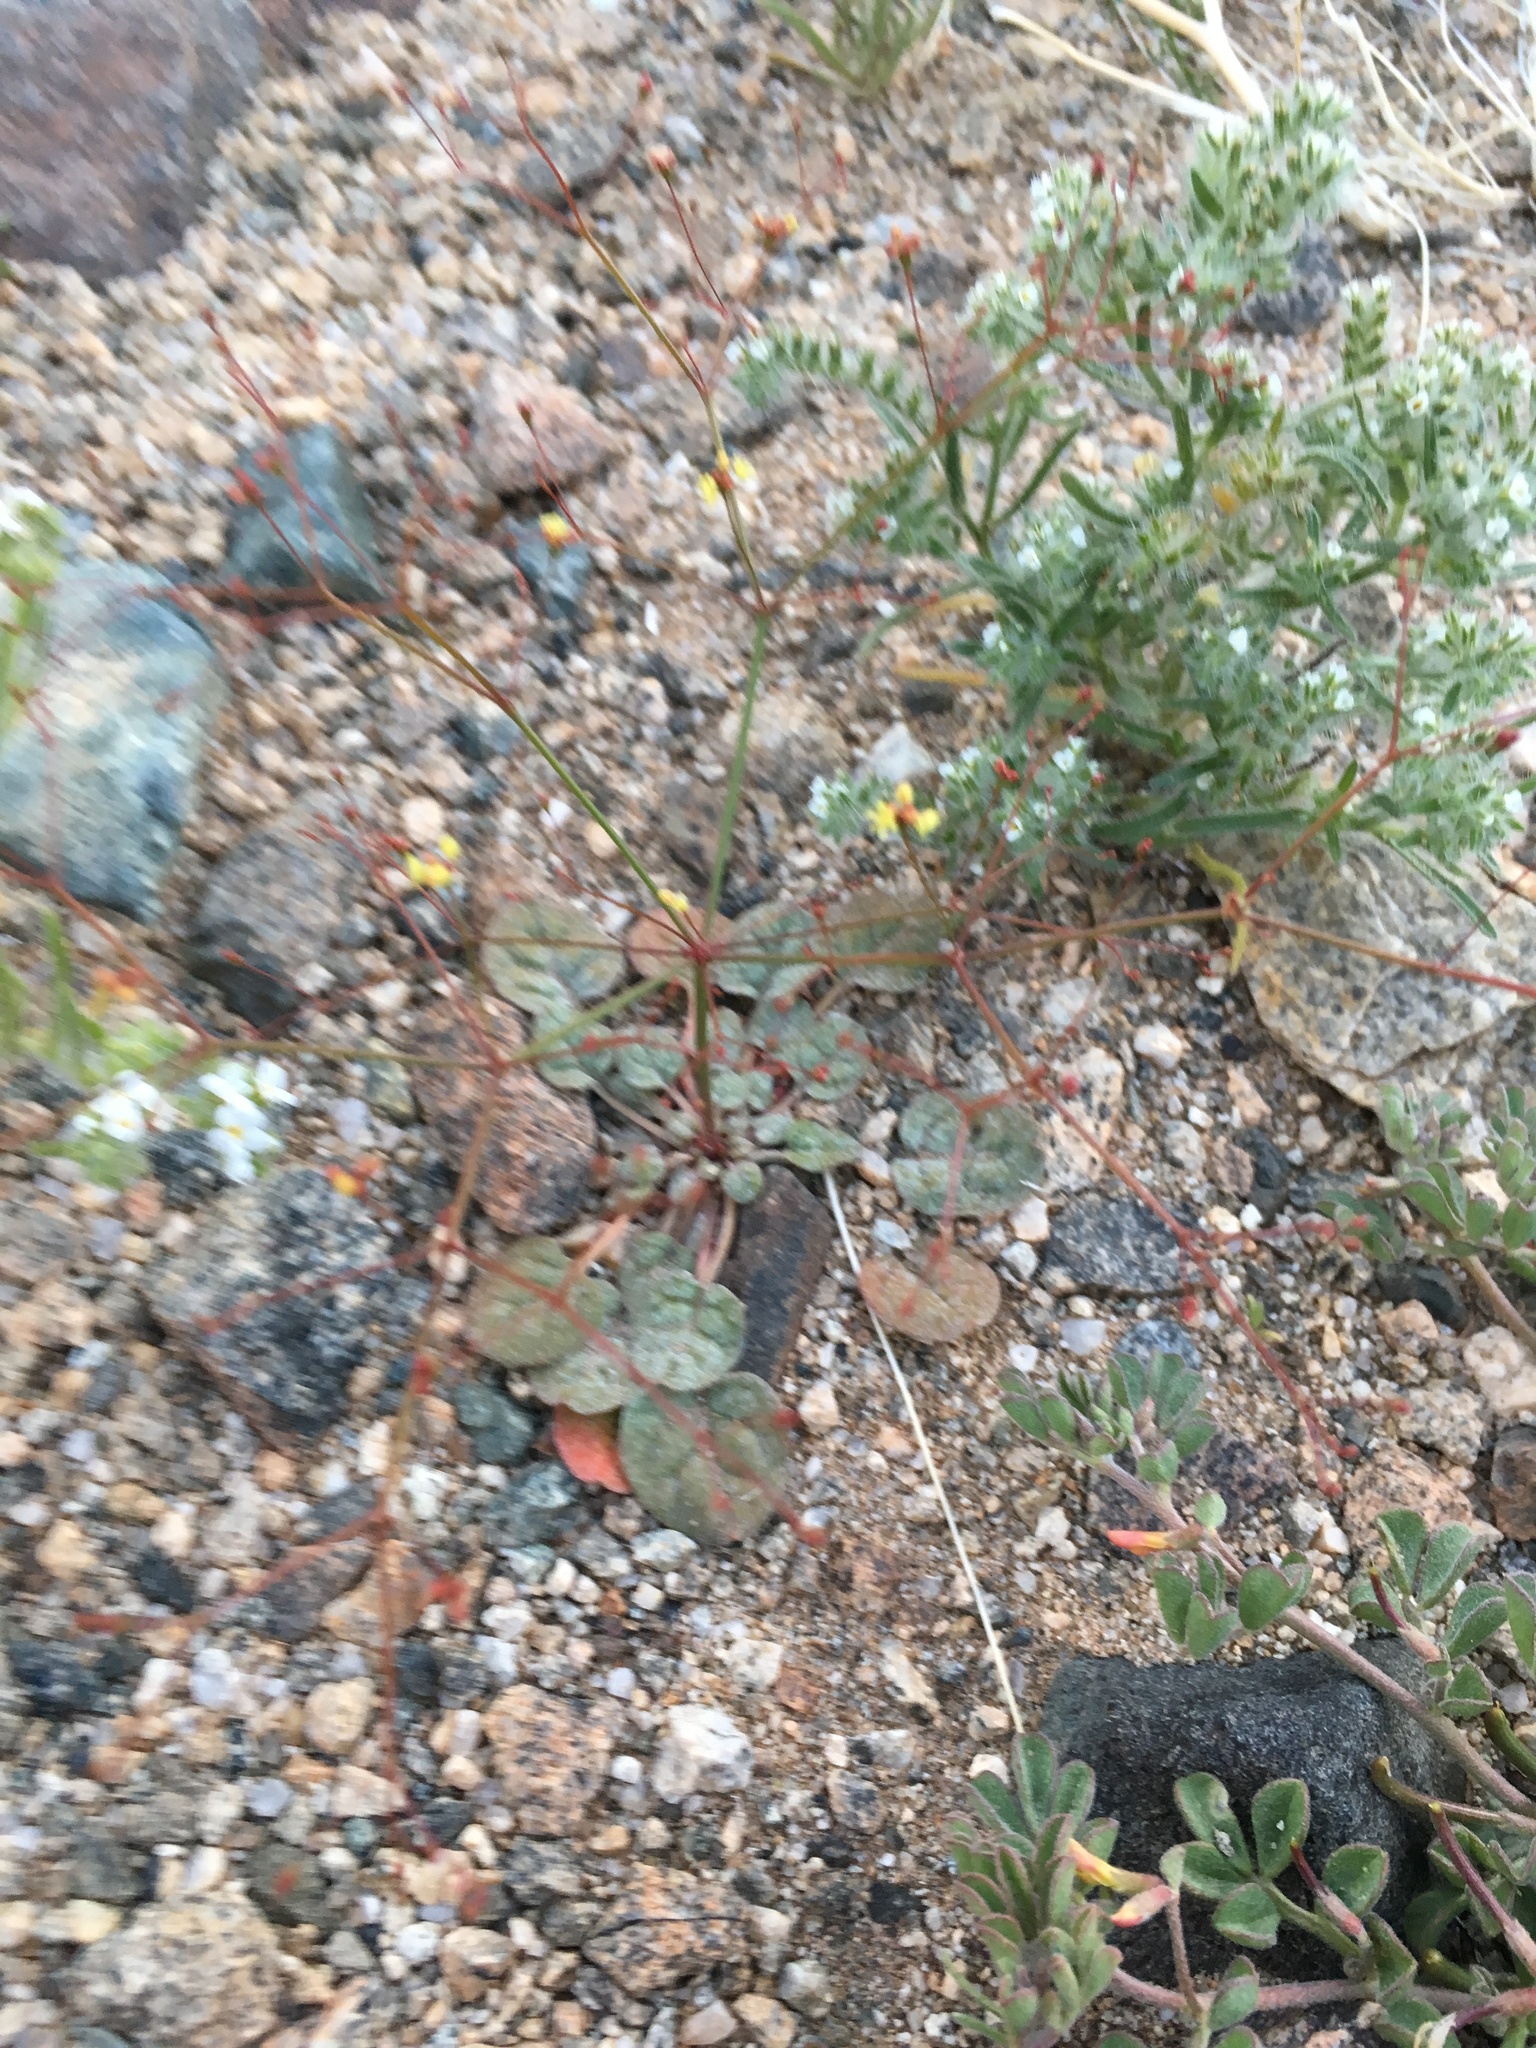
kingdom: Plantae
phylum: Tracheophyta
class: Magnoliopsida
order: Caryophyllales
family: Polygonaceae
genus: Eriogonum
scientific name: Eriogonum thomasii
